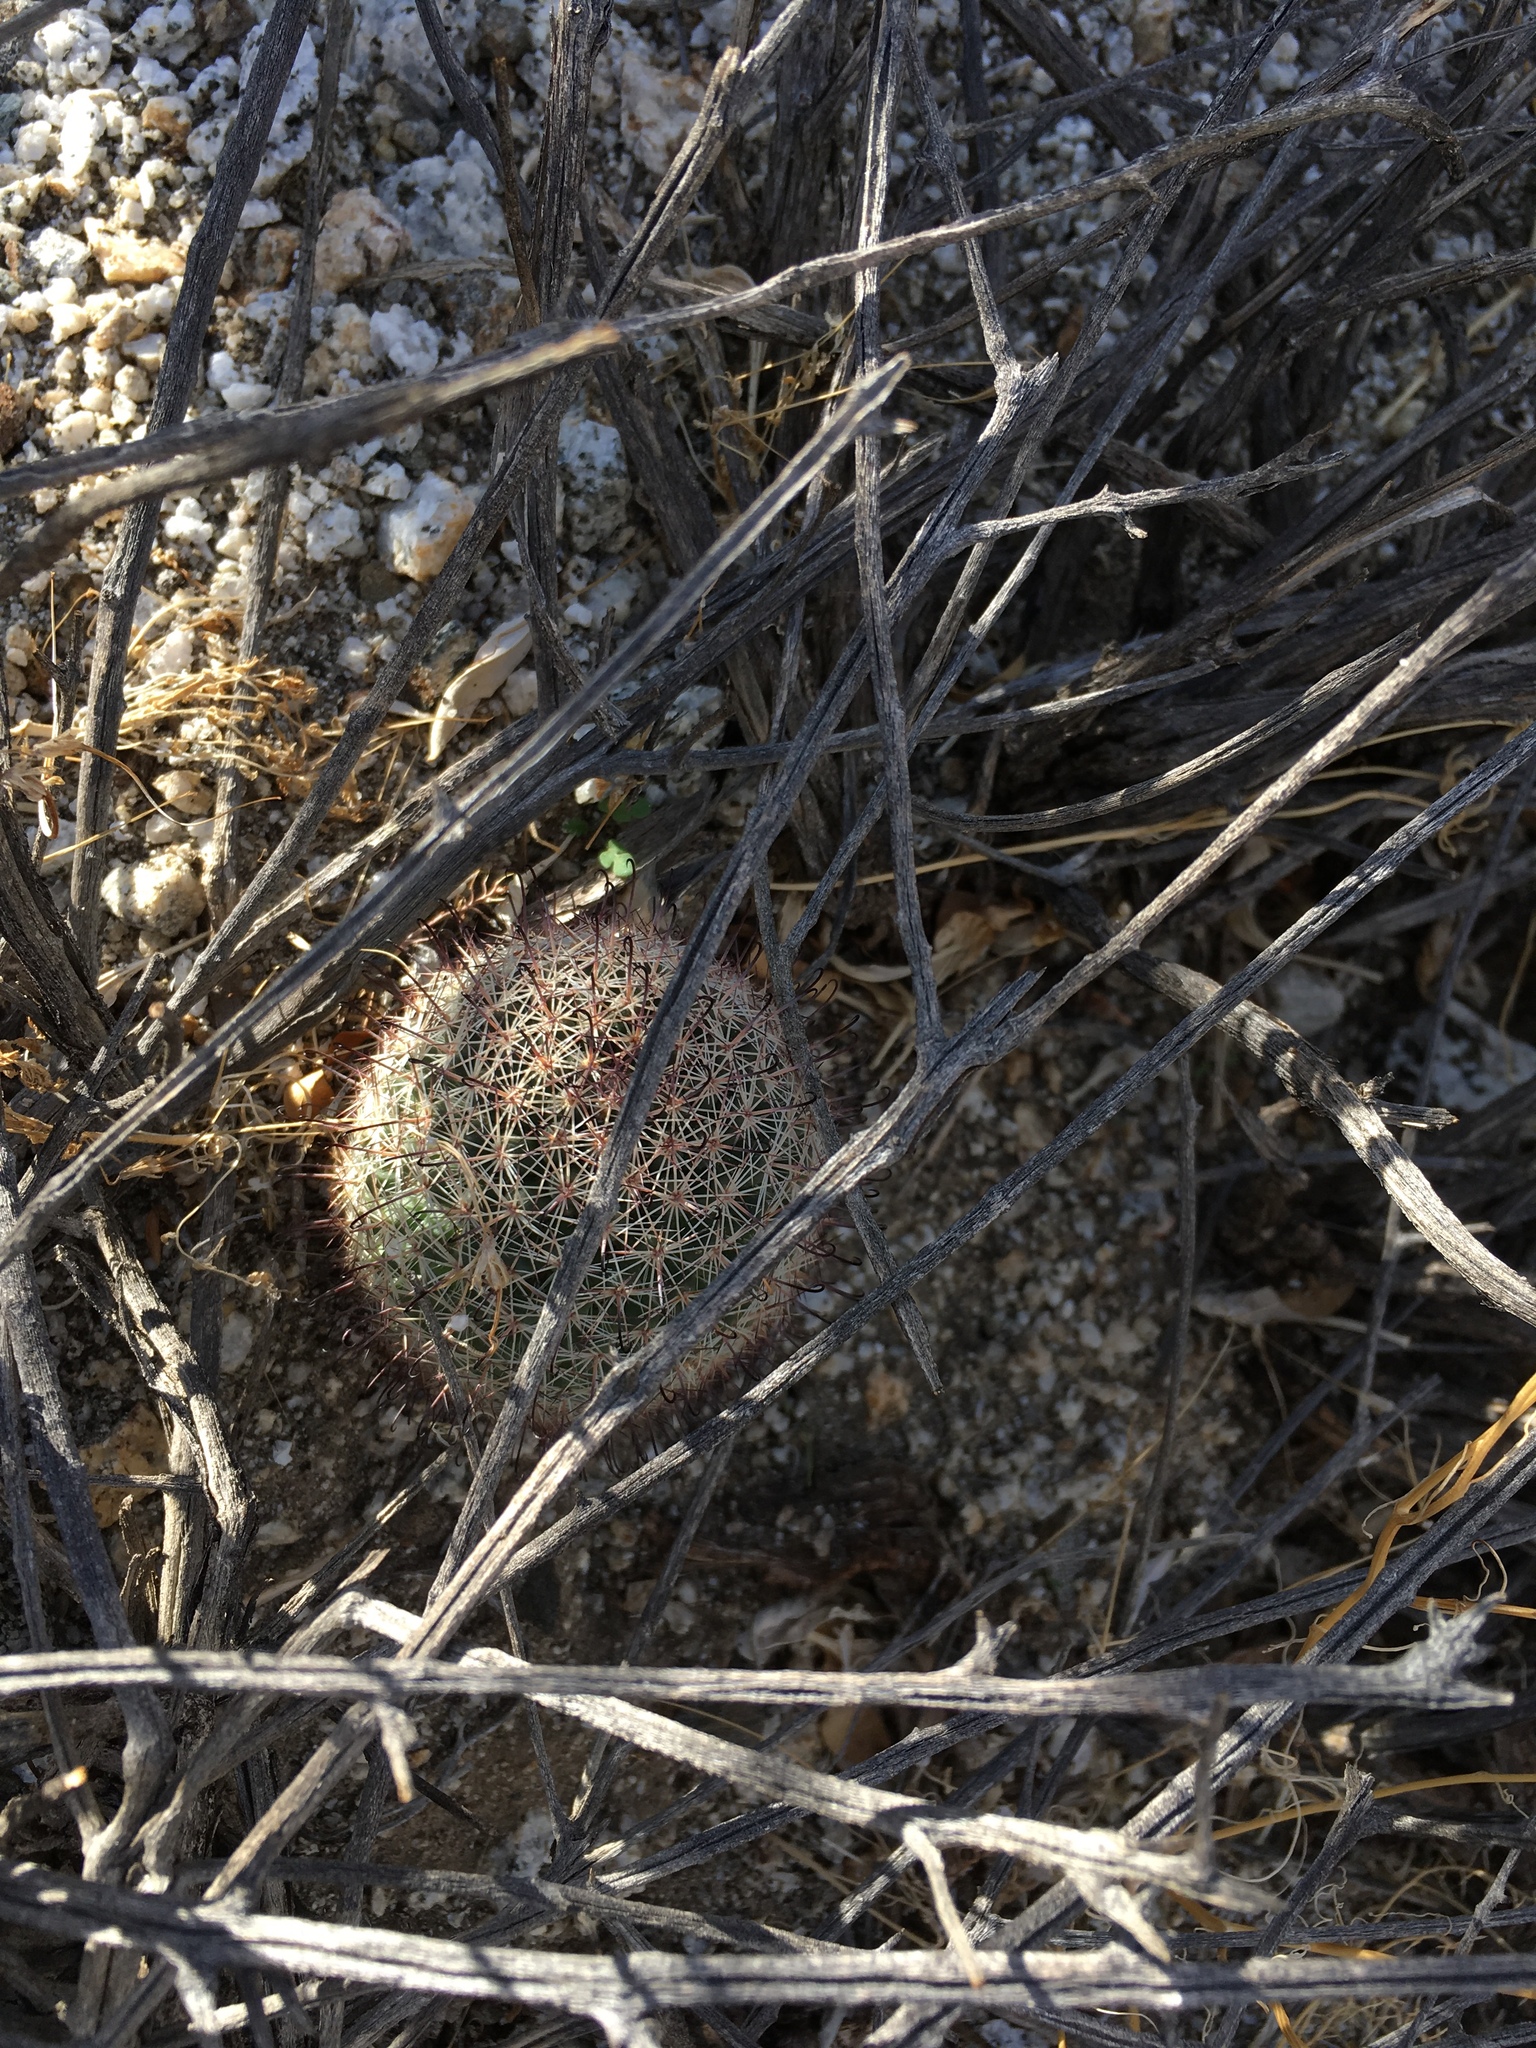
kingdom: Plantae
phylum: Tracheophyta
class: Magnoliopsida
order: Caryophyllales
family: Cactaceae
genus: Cochemiea
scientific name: Cochemiea dioica
